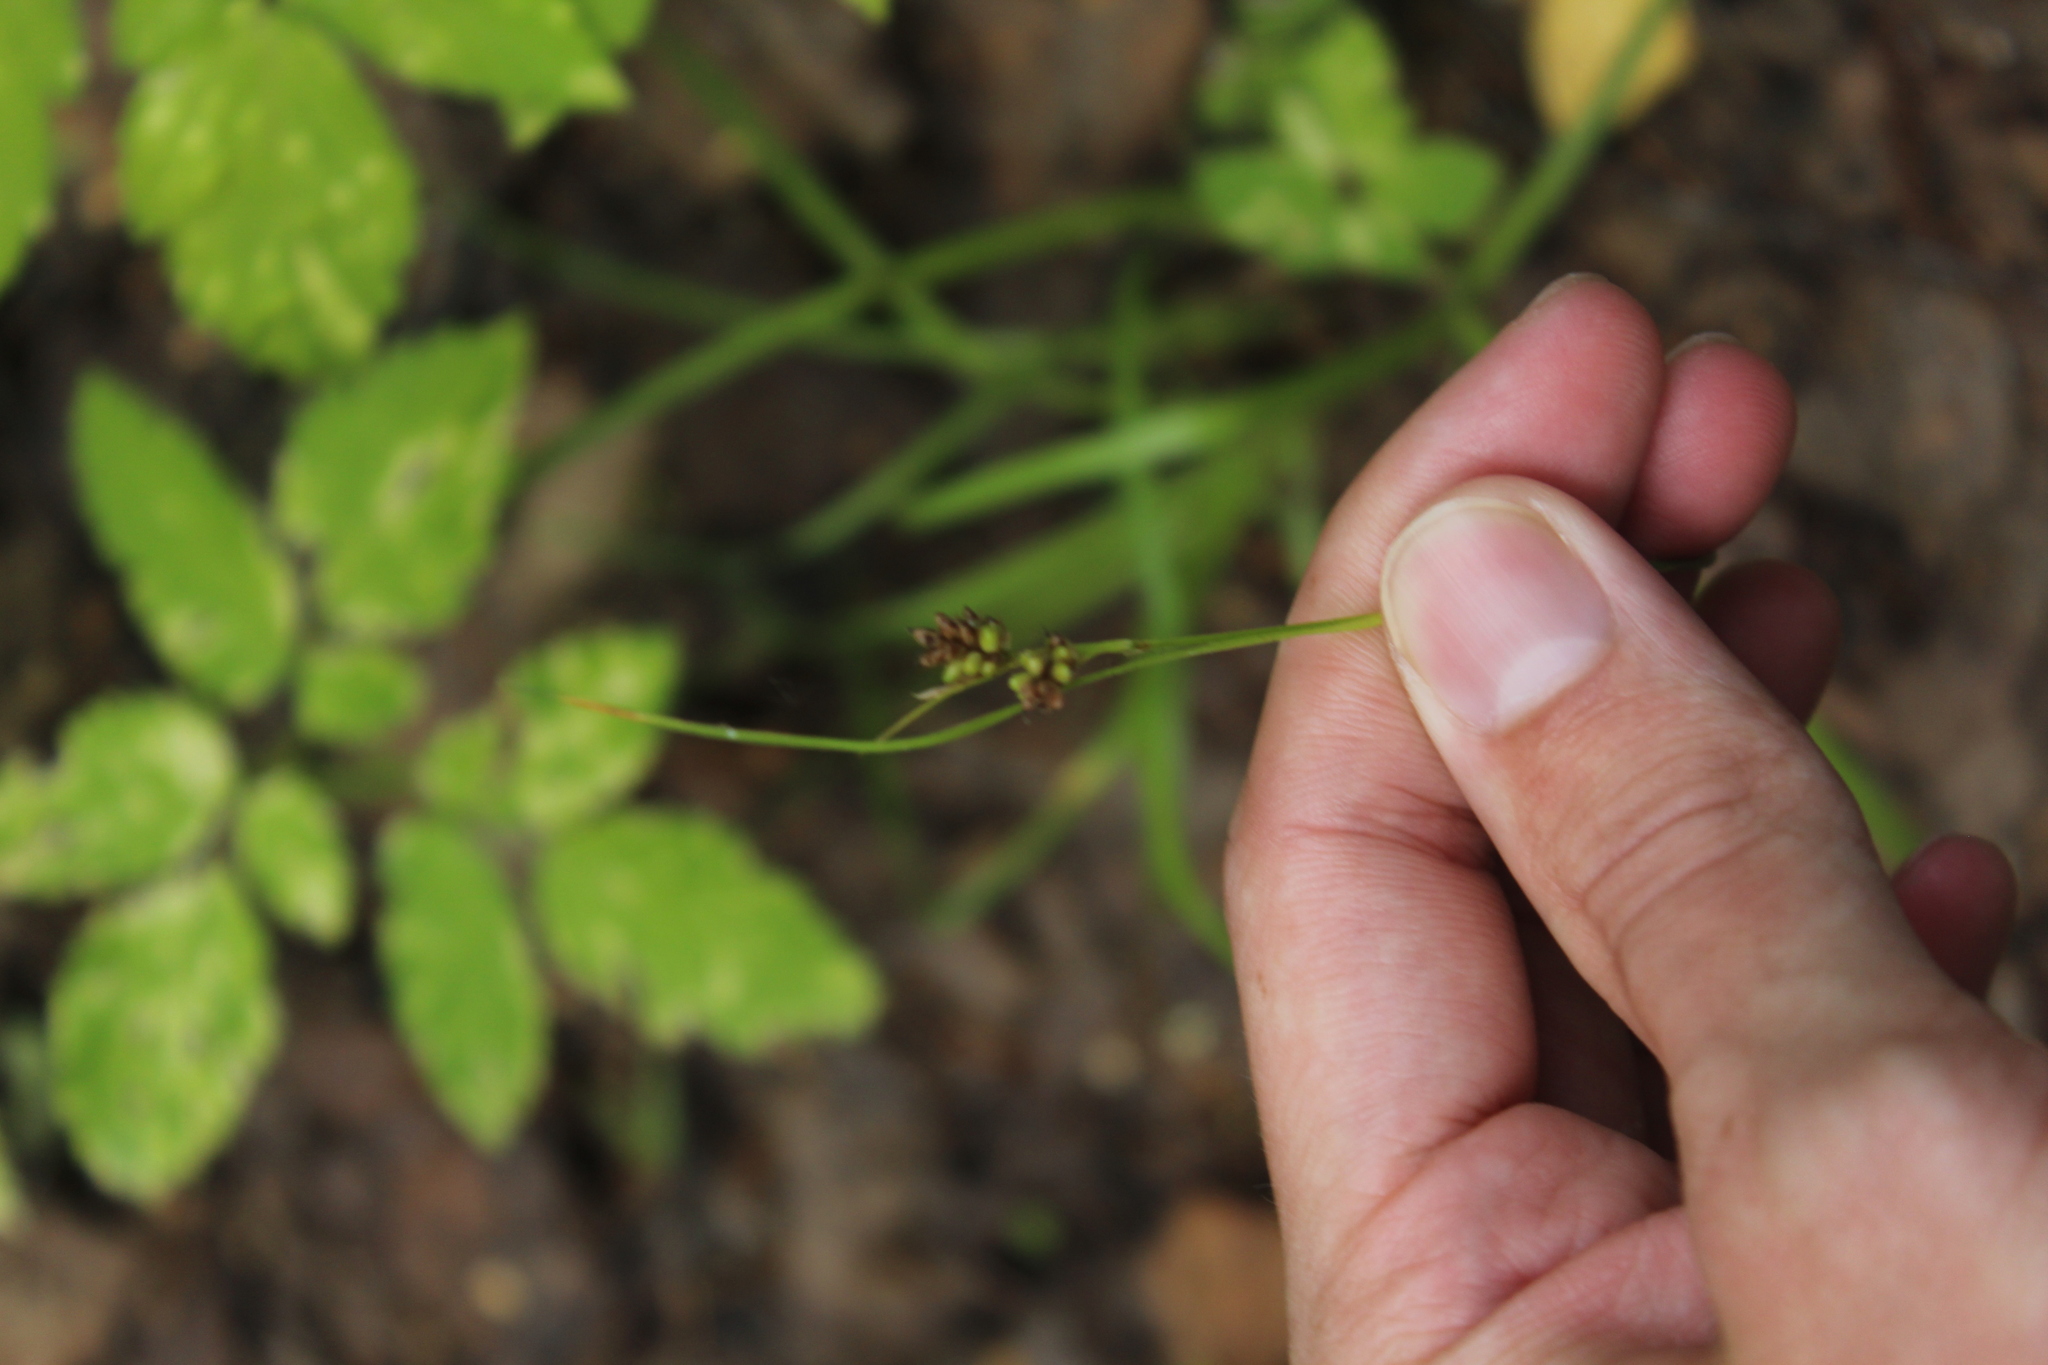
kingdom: Plantae
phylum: Tracheophyta
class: Liliopsida
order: Poales
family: Cyperaceae
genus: Carex
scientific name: Carex pallescens
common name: Pale sedge
